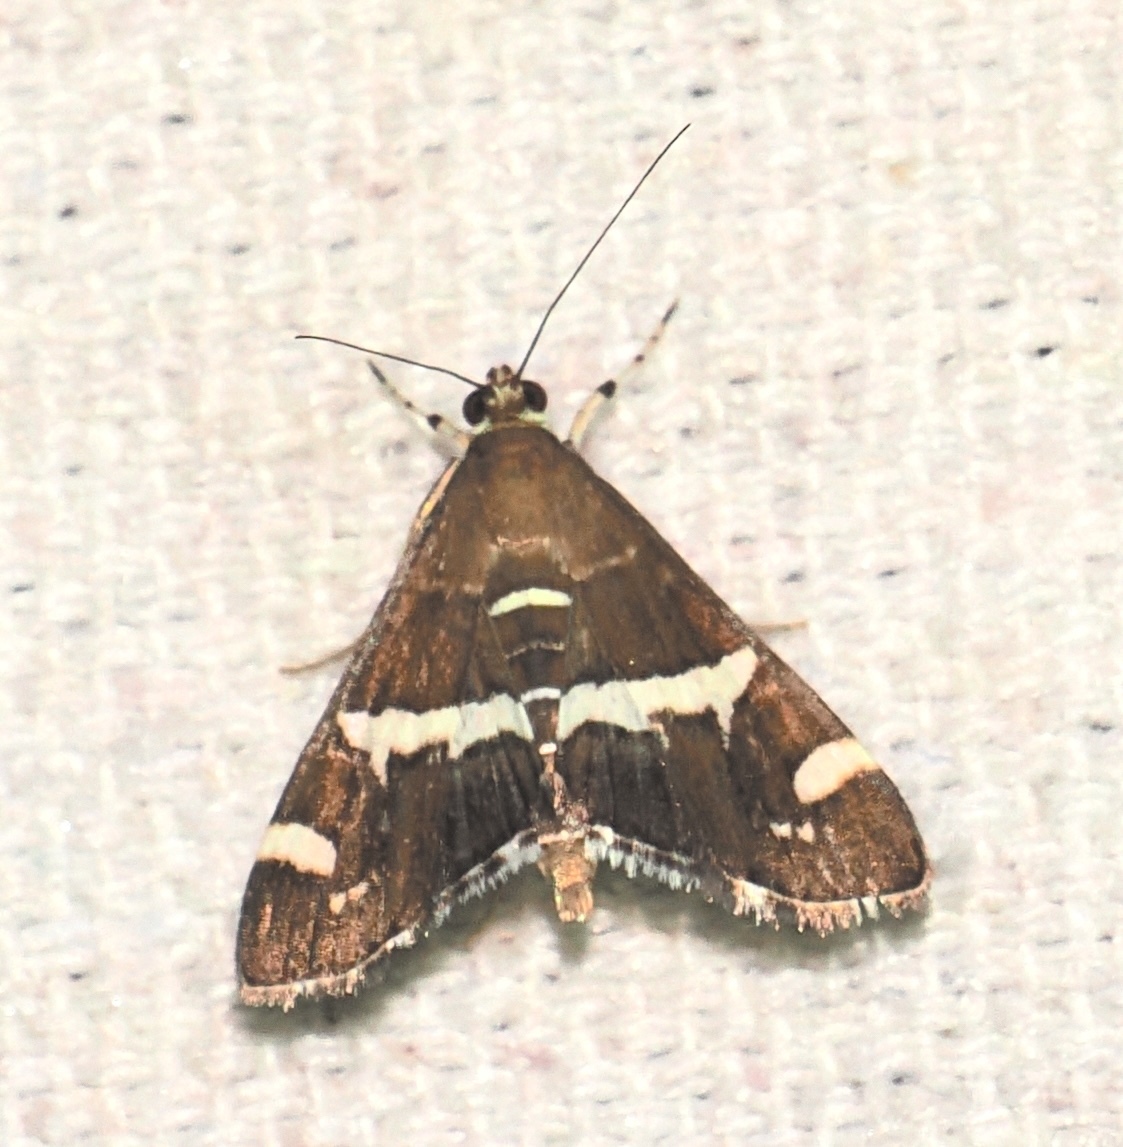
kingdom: Animalia
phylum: Arthropoda
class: Insecta
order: Lepidoptera
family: Crambidae
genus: Spoladea
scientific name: Spoladea recurvalis
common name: Beet webworm moth
